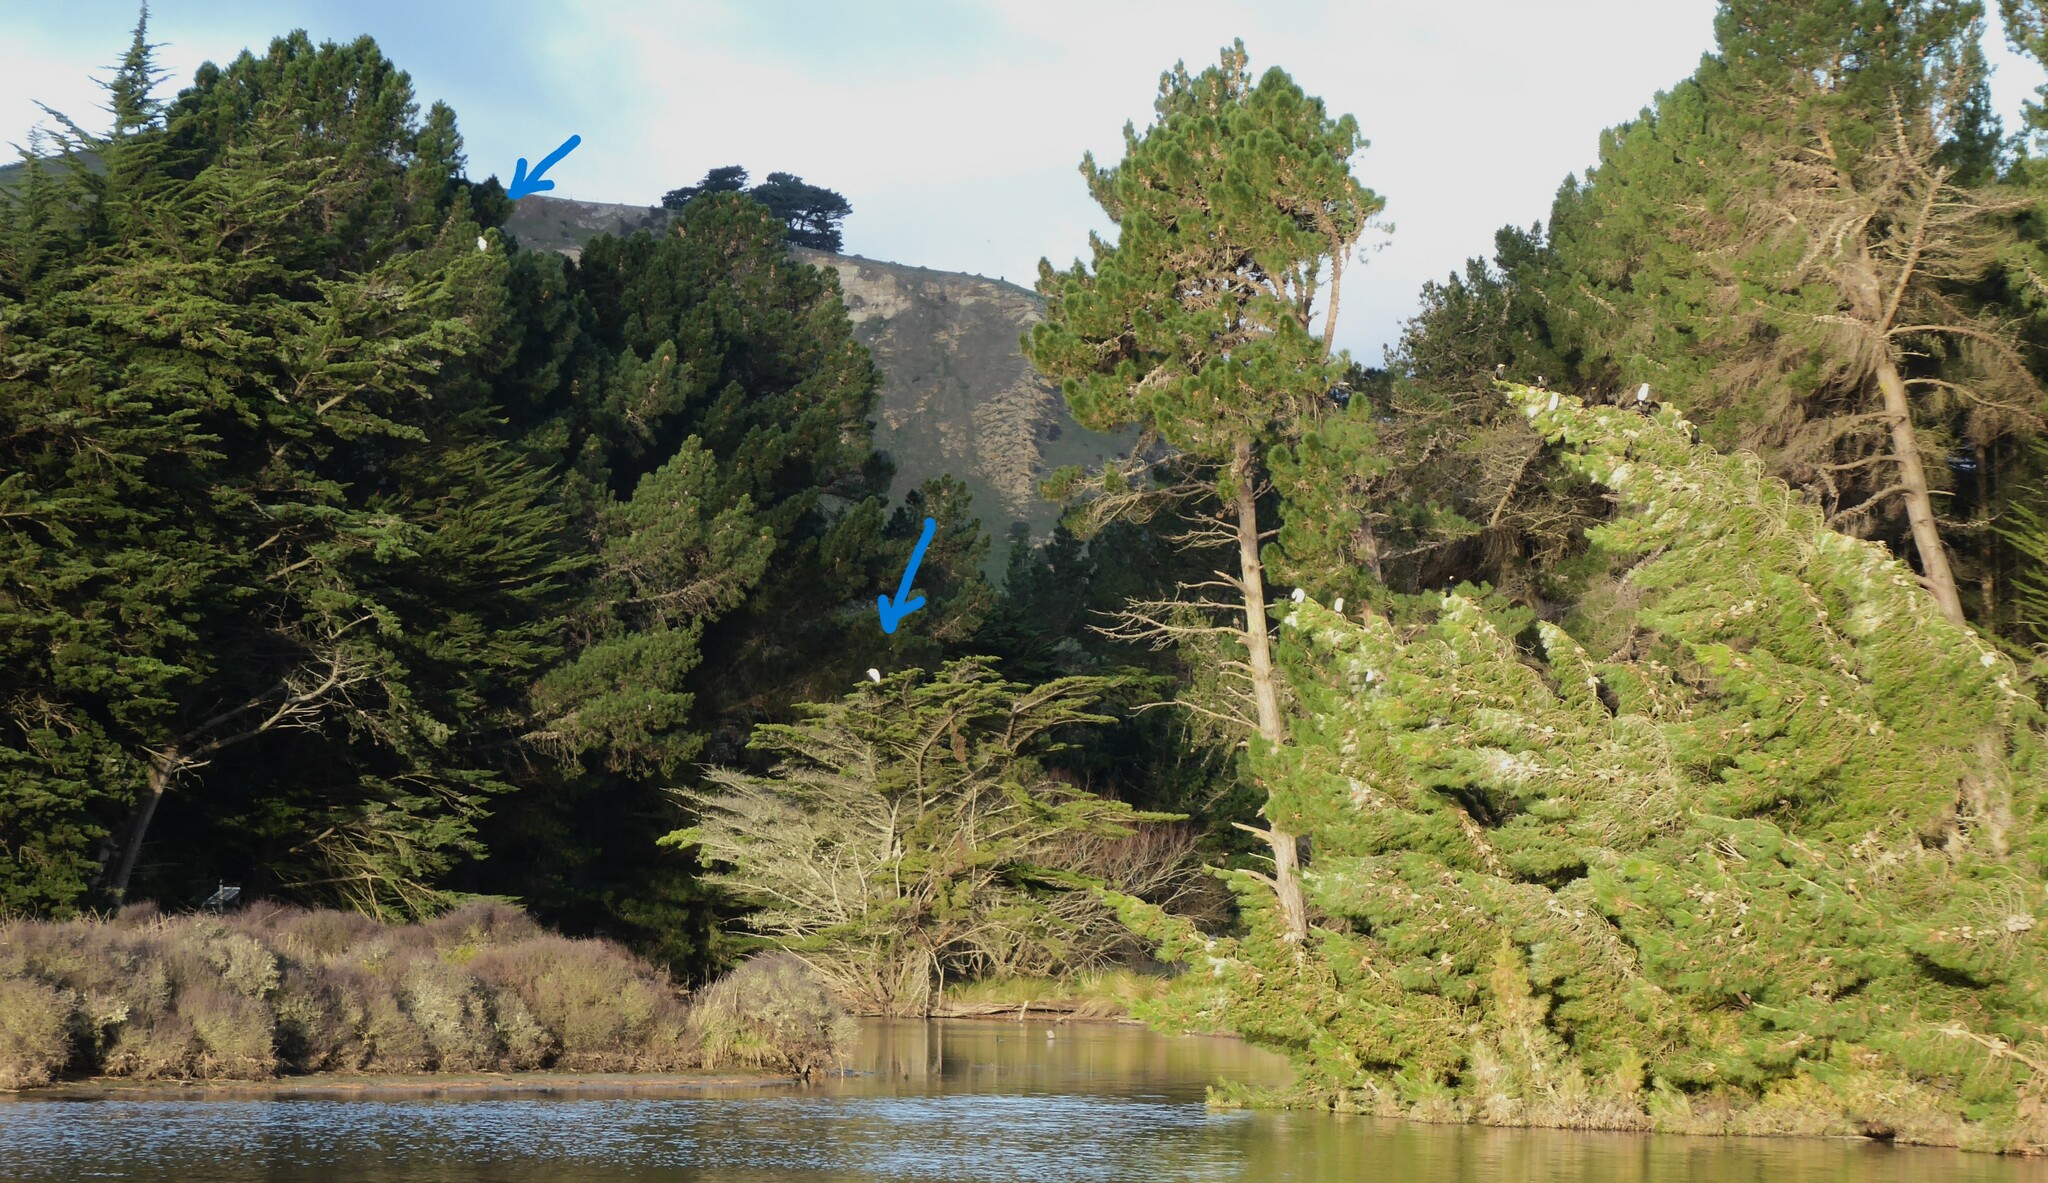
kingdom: Animalia
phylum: Chordata
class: Aves
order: Pelecaniformes
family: Ardeidae
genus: Ardea
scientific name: Ardea modesta
